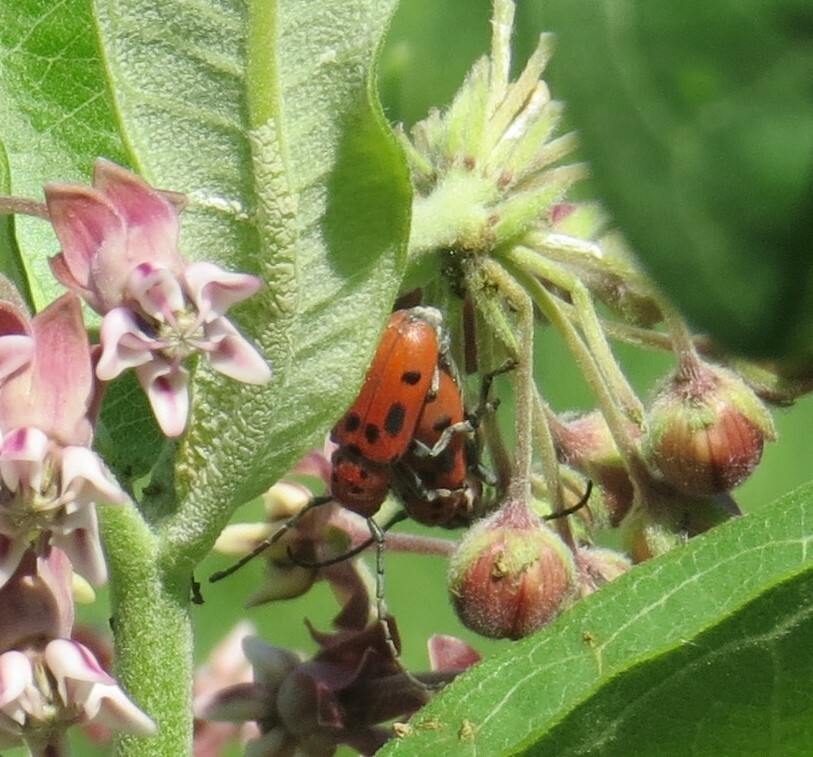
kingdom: Animalia
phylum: Arthropoda
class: Insecta
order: Coleoptera
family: Cerambycidae
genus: Tetraopes
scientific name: Tetraopes tetrophthalmus
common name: Red milkweed beetle
